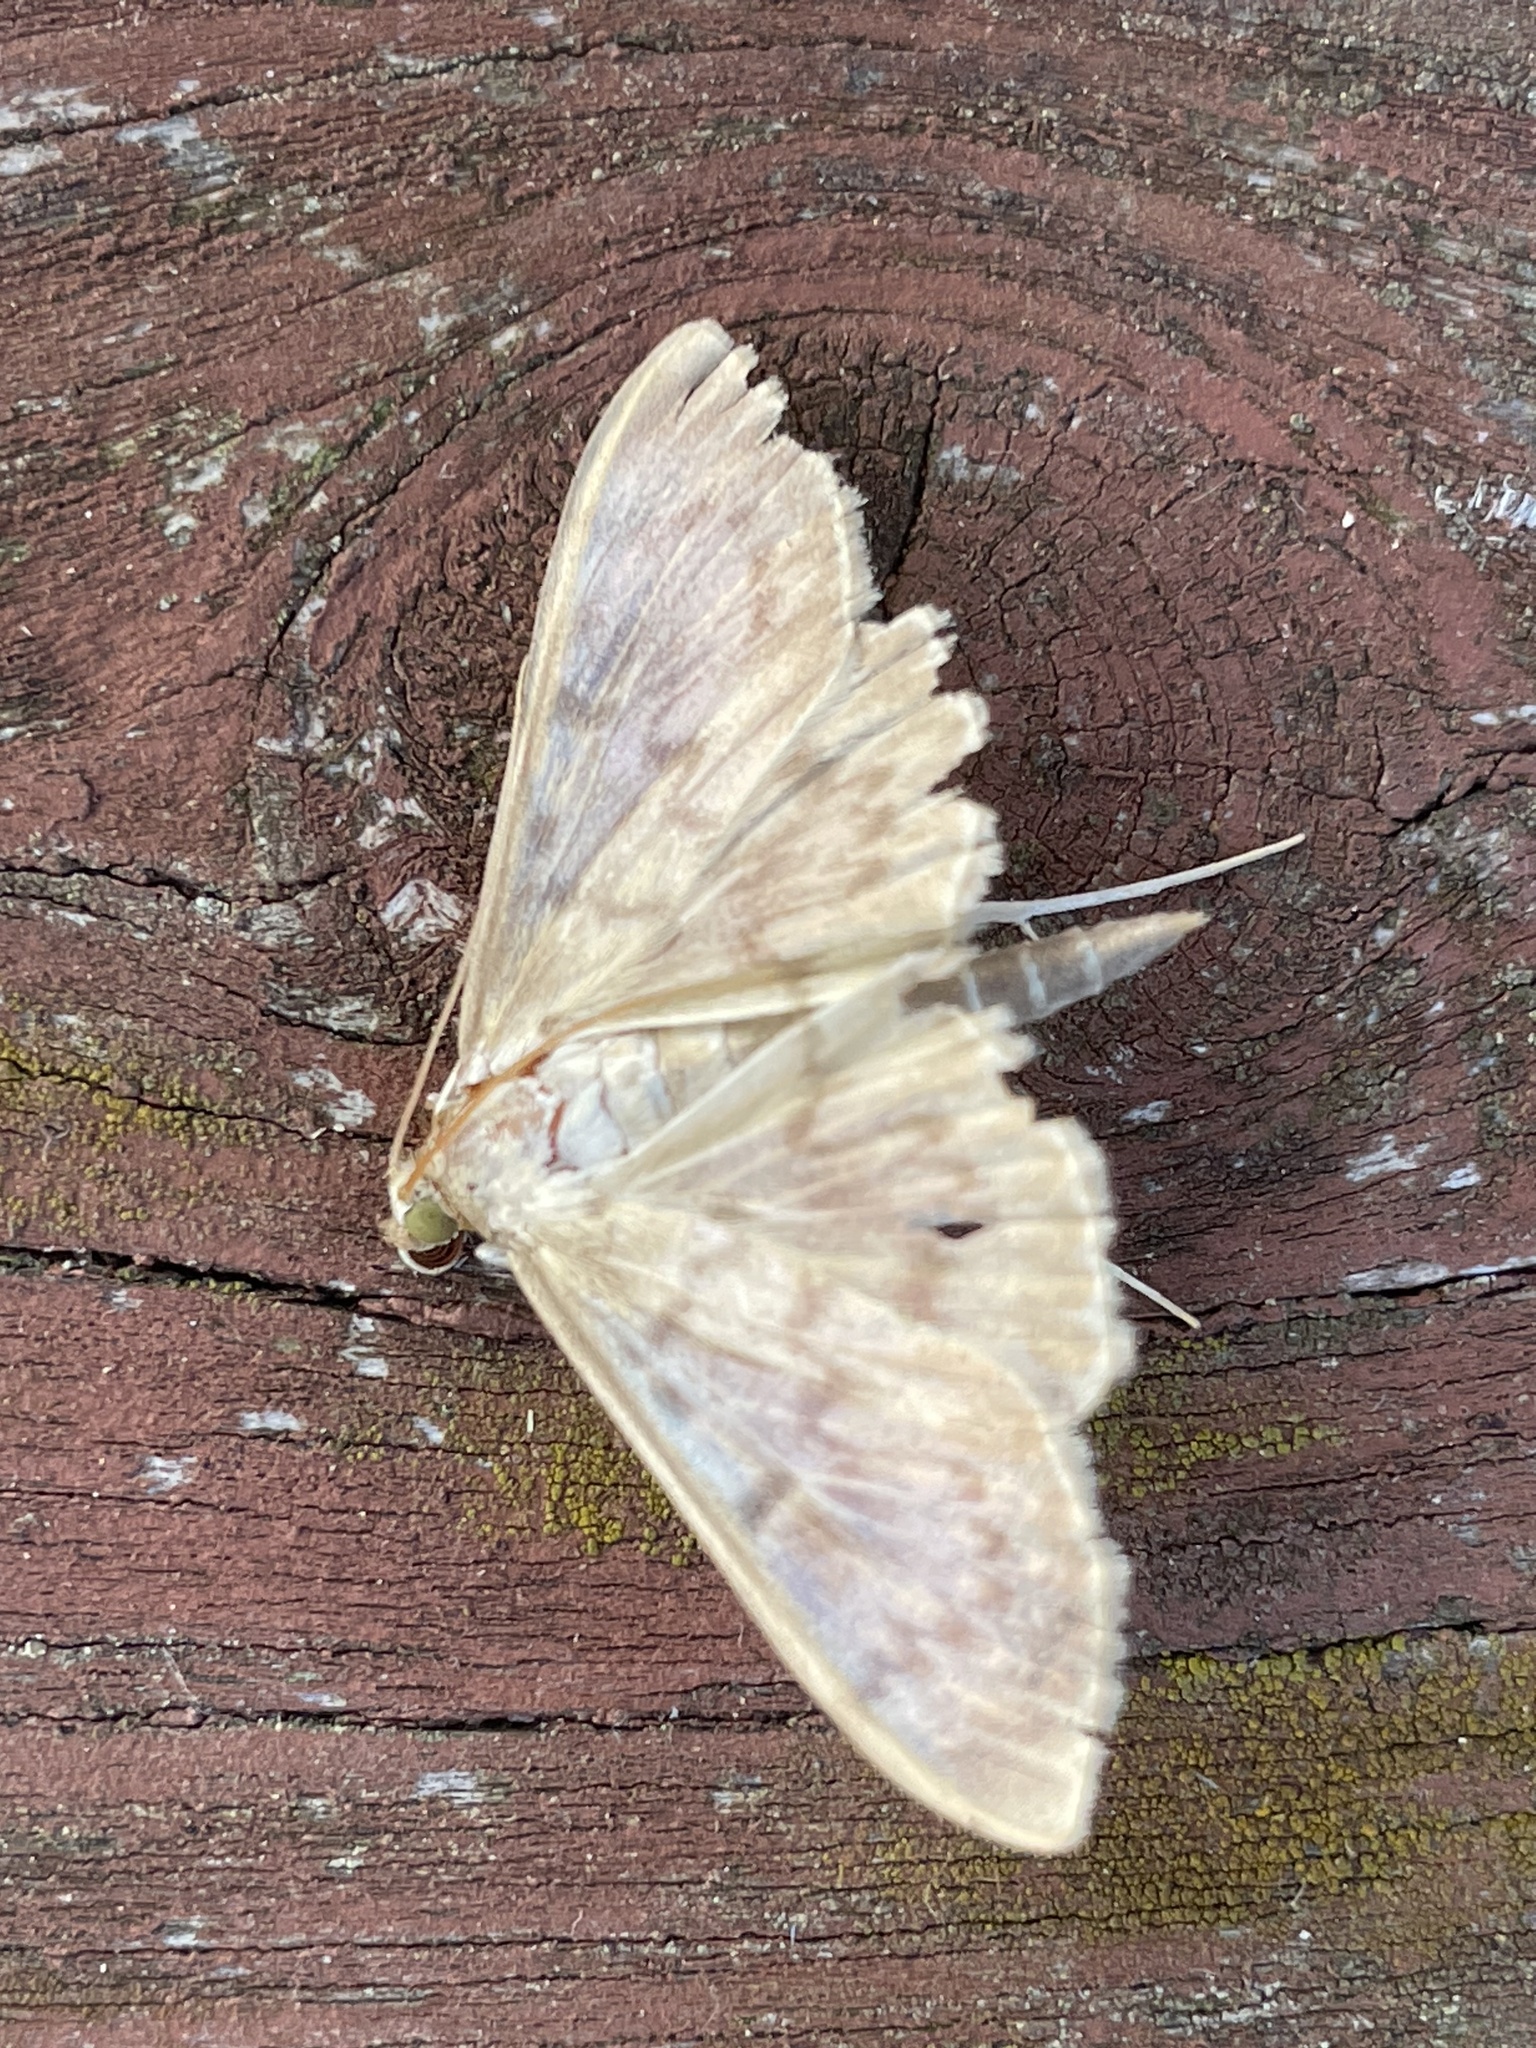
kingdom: Animalia
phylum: Arthropoda
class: Insecta
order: Lepidoptera
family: Crambidae
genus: Patania
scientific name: Patania ruralis
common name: Mother of pearl
